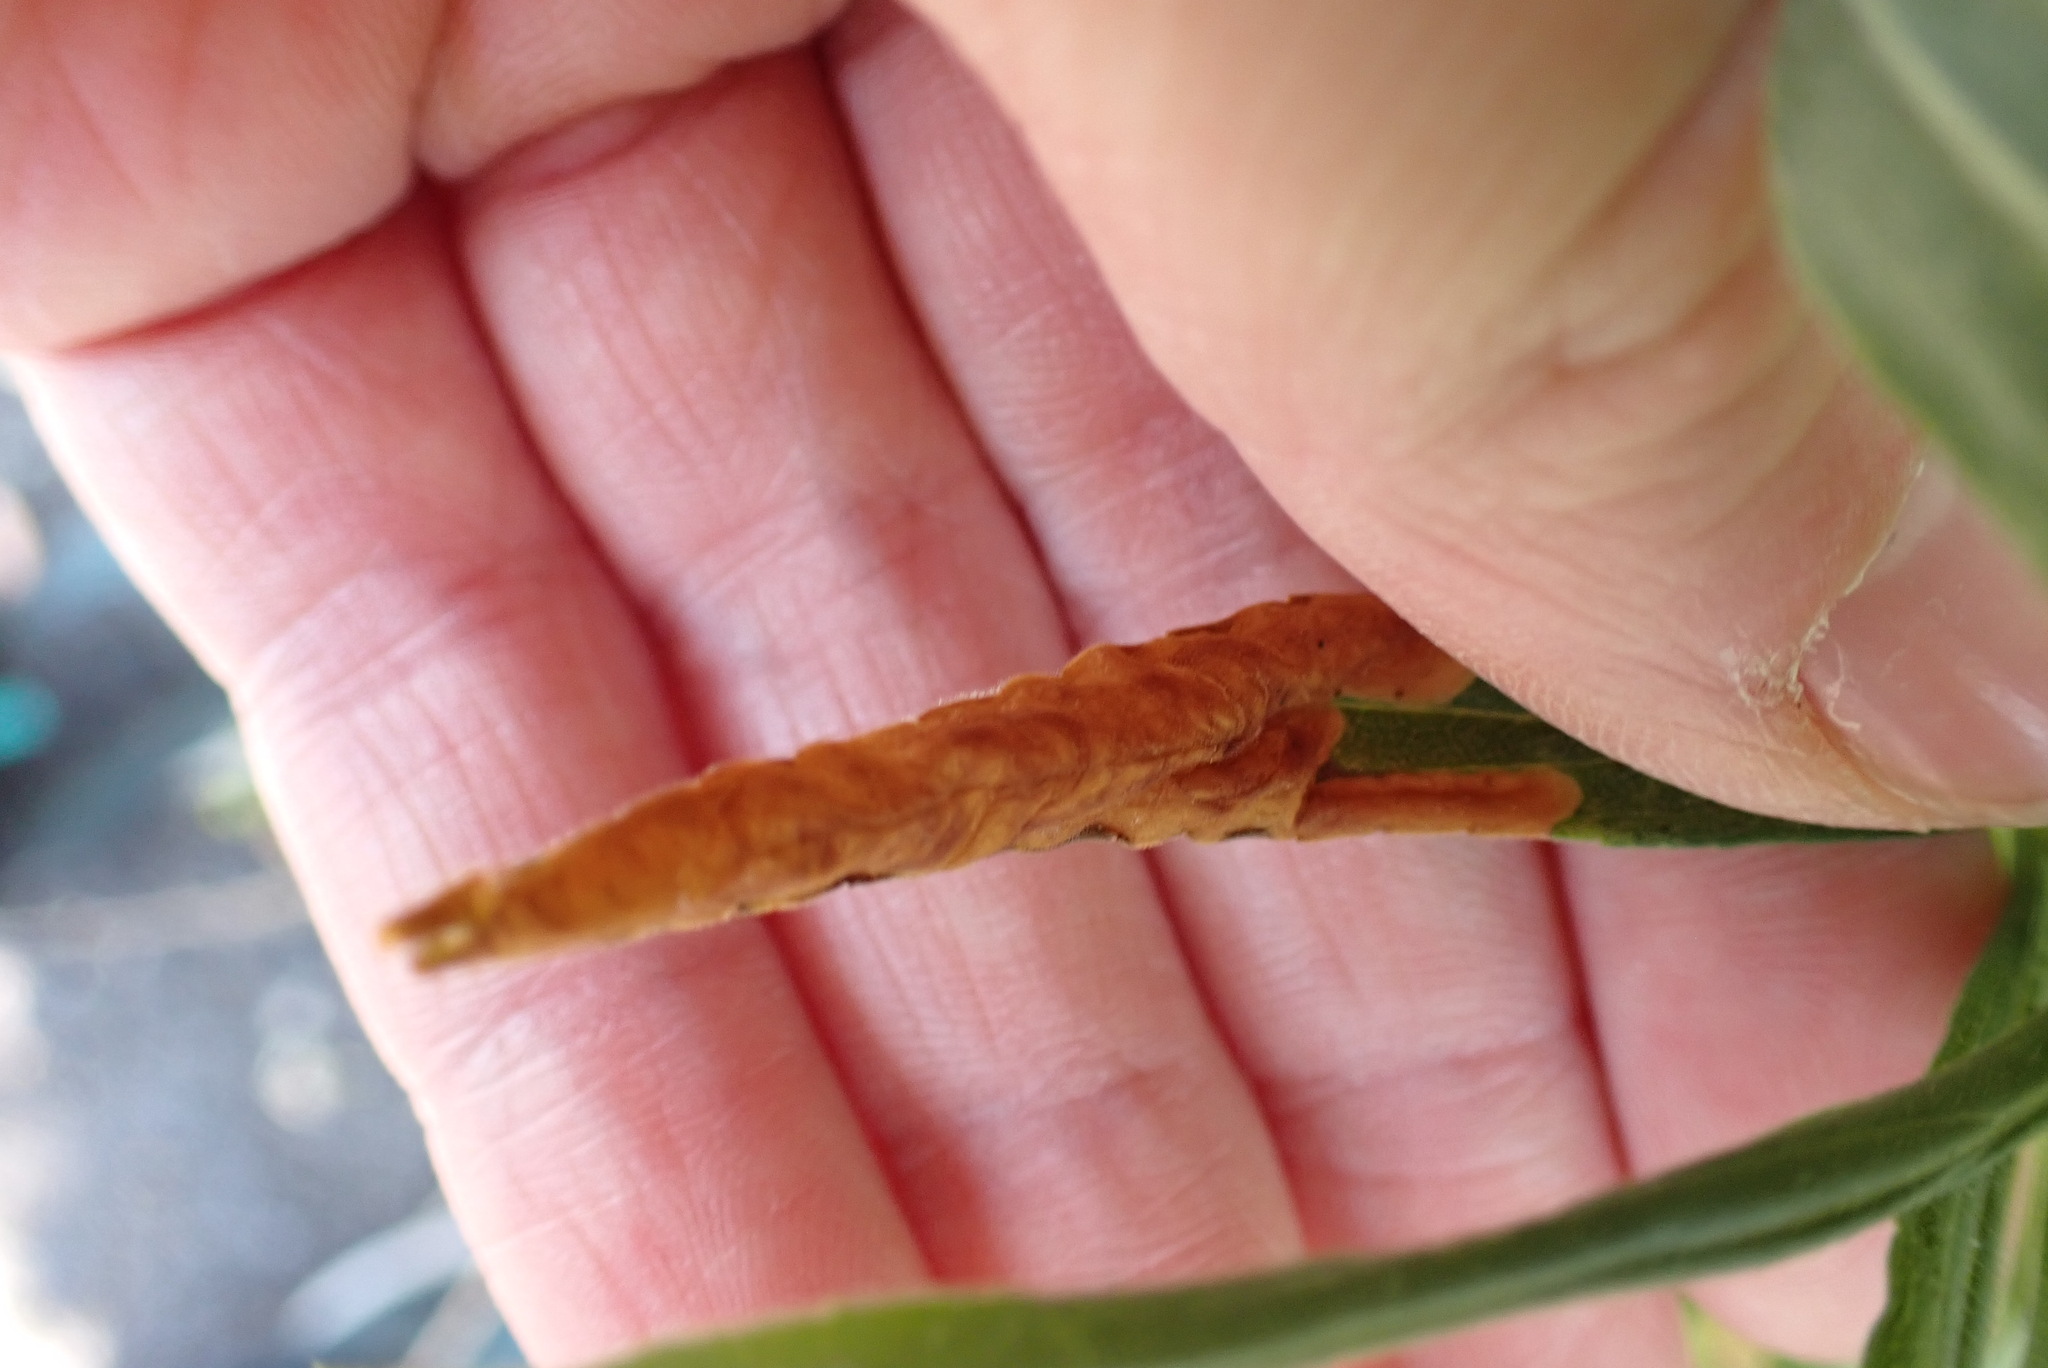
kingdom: Animalia
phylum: Arthropoda
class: Insecta
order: Diptera
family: Agromyzidae
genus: Nemorimyza
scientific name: Nemorimyza posticata
